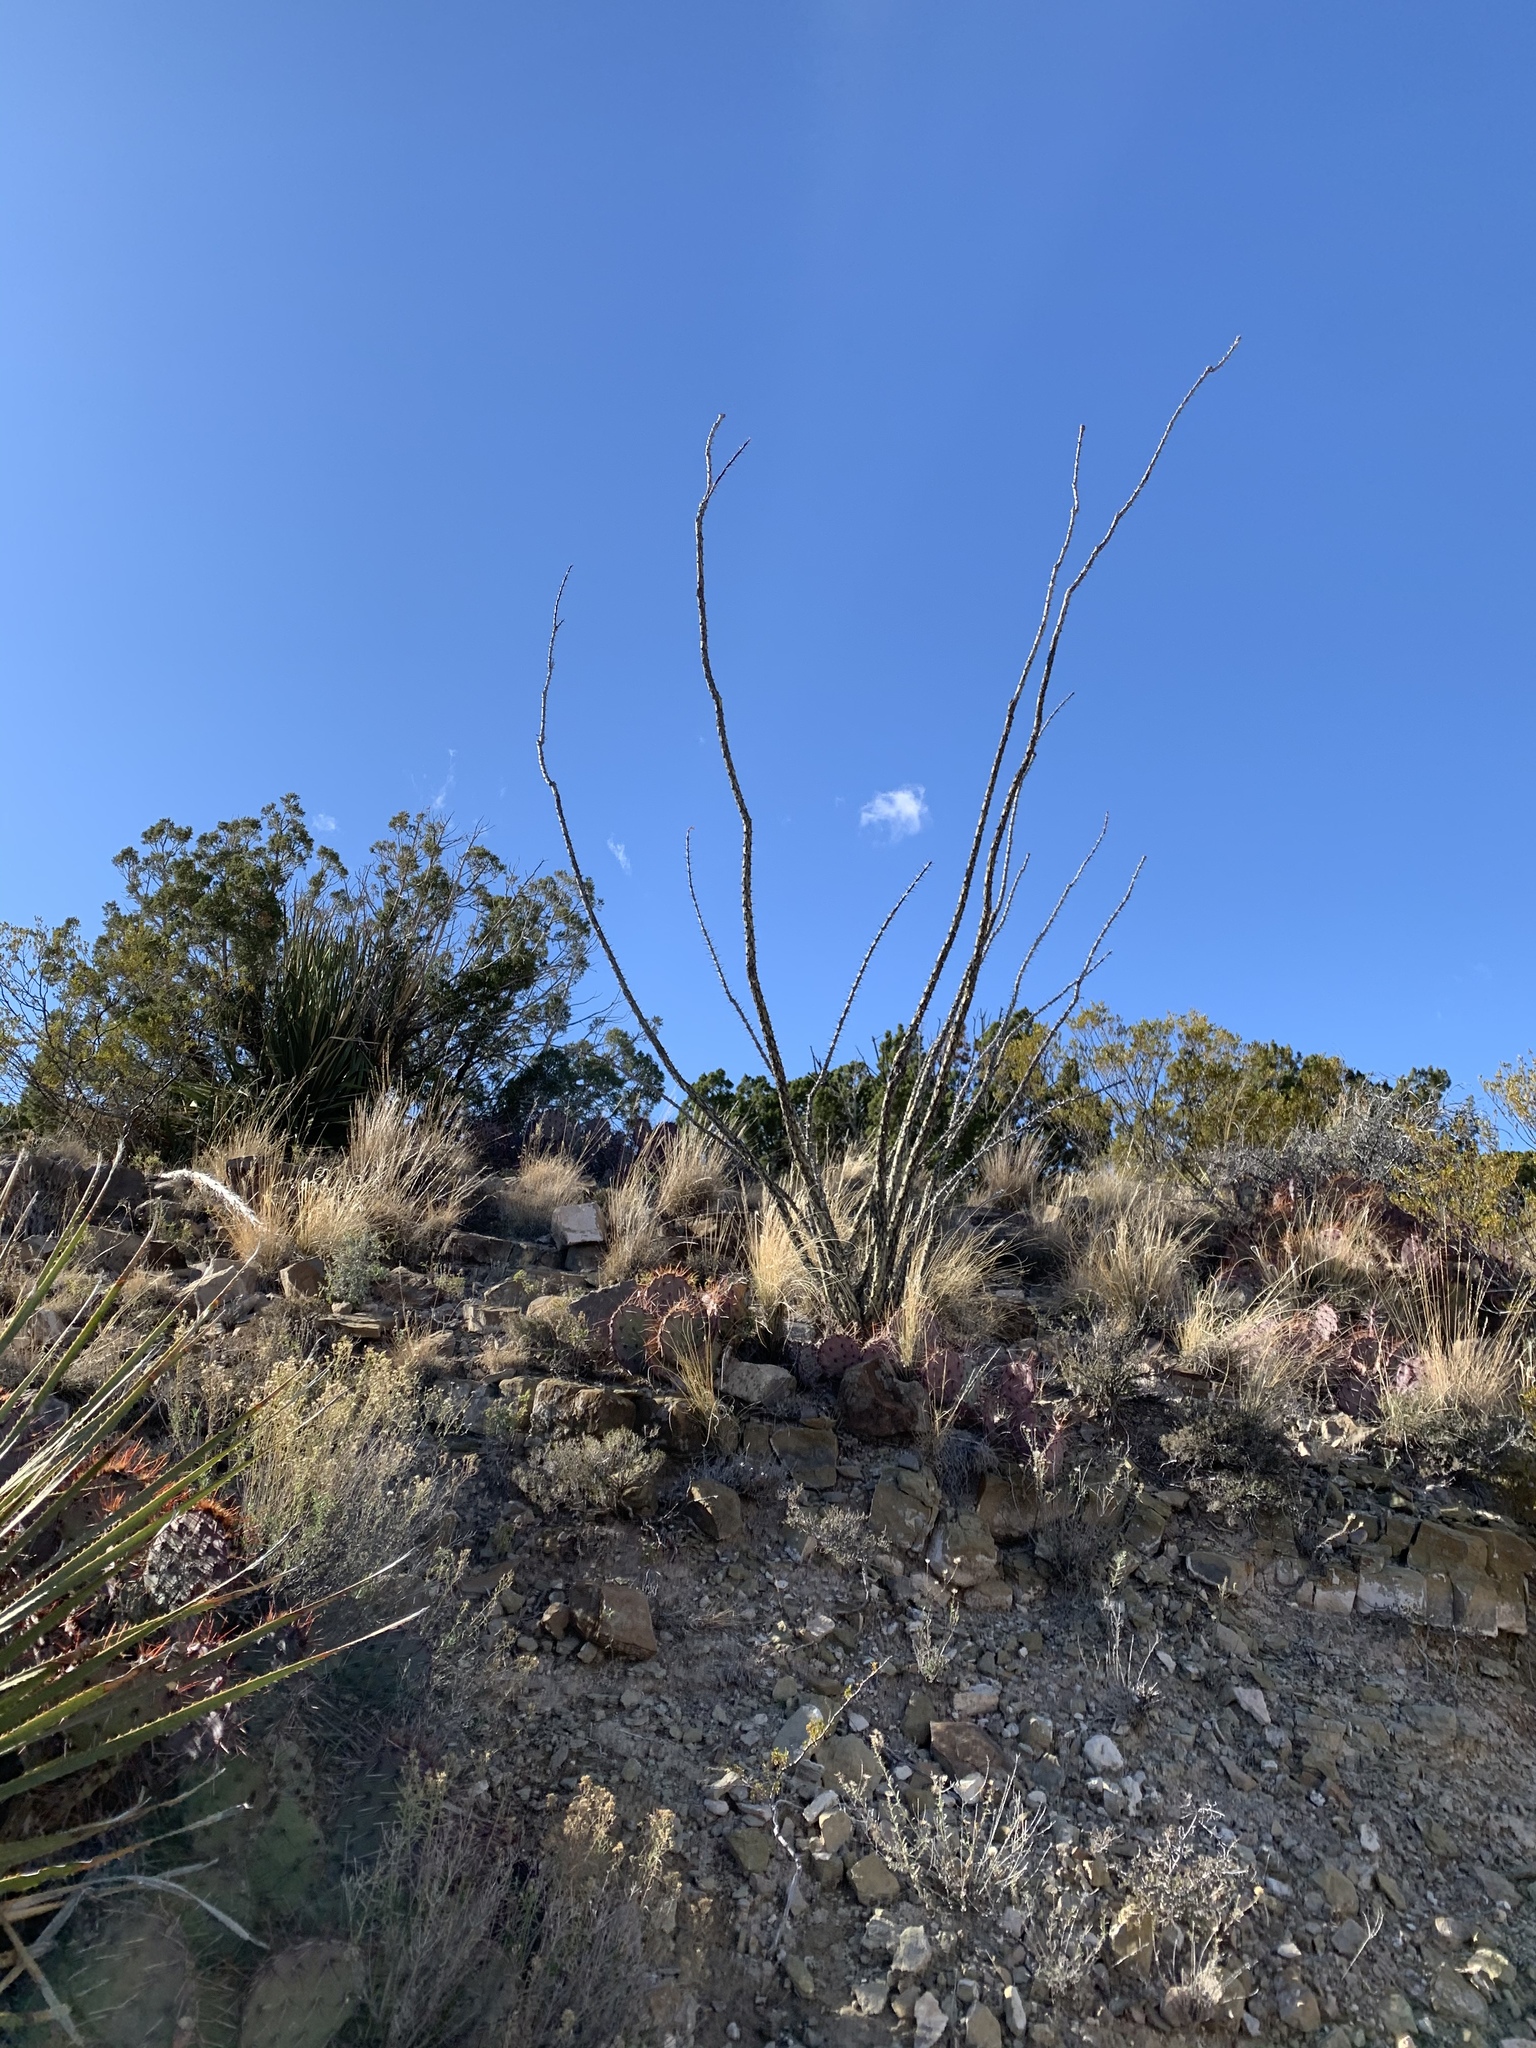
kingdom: Plantae
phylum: Tracheophyta
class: Magnoliopsida
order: Ericales
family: Fouquieriaceae
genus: Fouquieria
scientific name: Fouquieria splendens
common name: Vine-cactus
